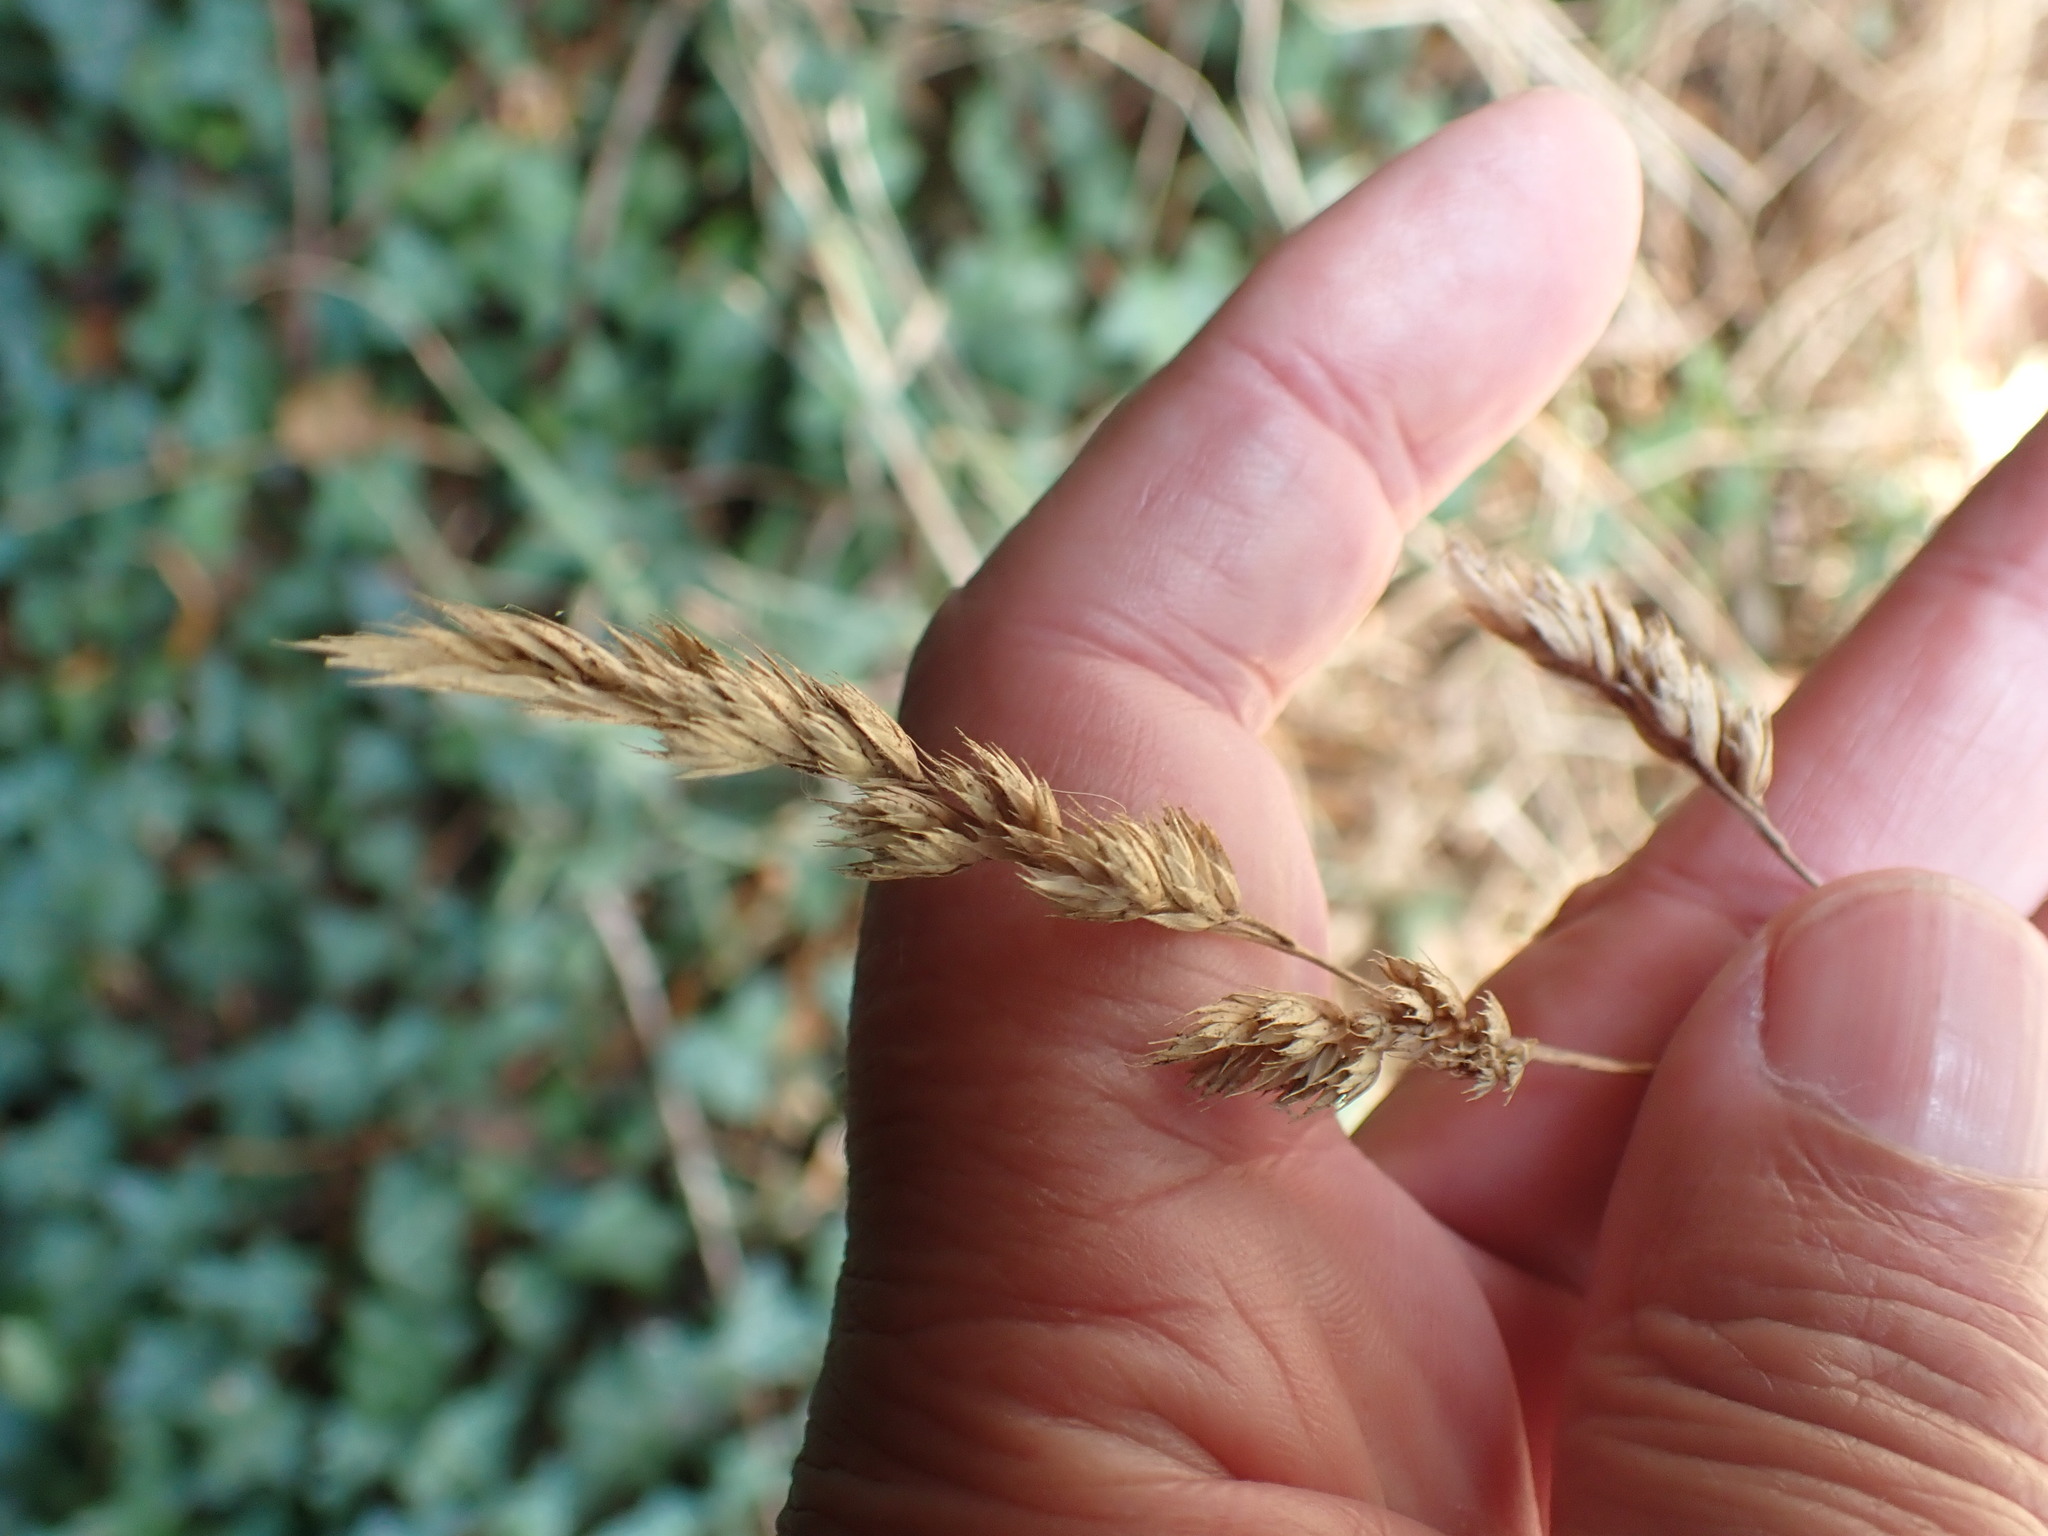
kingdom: Plantae
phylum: Tracheophyta
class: Liliopsida
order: Poales
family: Poaceae
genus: Dactylis
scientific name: Dactylis glomerata
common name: Orchardgrass
